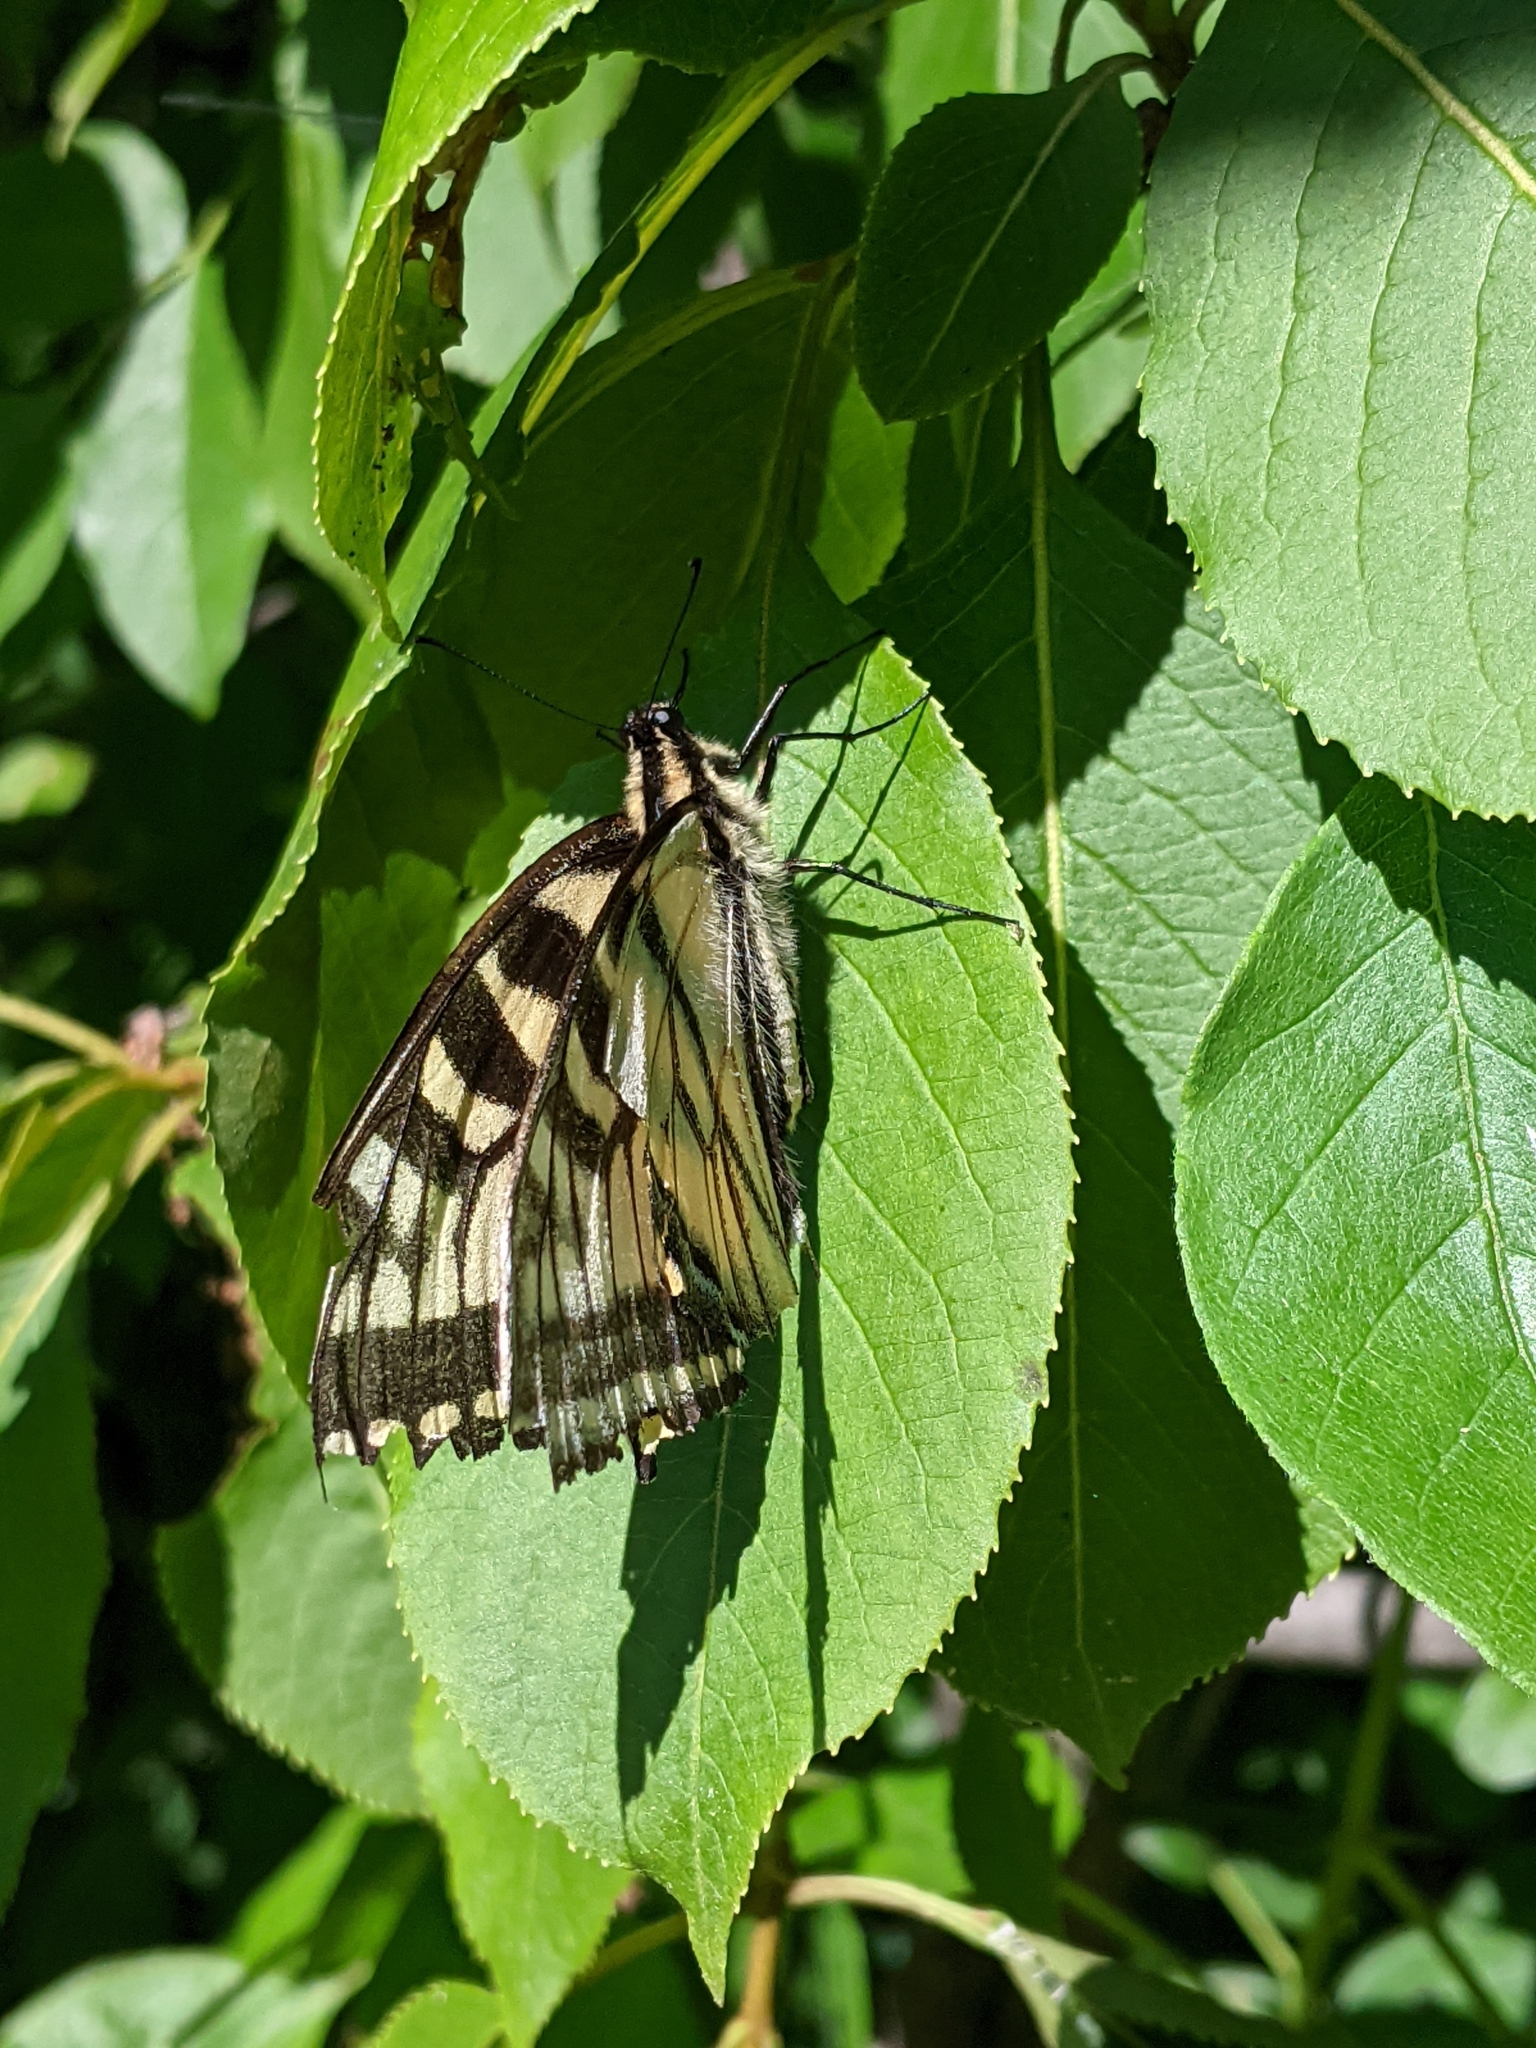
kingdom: Animalia
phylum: Arthropoda
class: Insecta
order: Lepidoptera
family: Papilionidae
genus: Papilio
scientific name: Papilio canadensis
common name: Canadian tiger swallowtail
